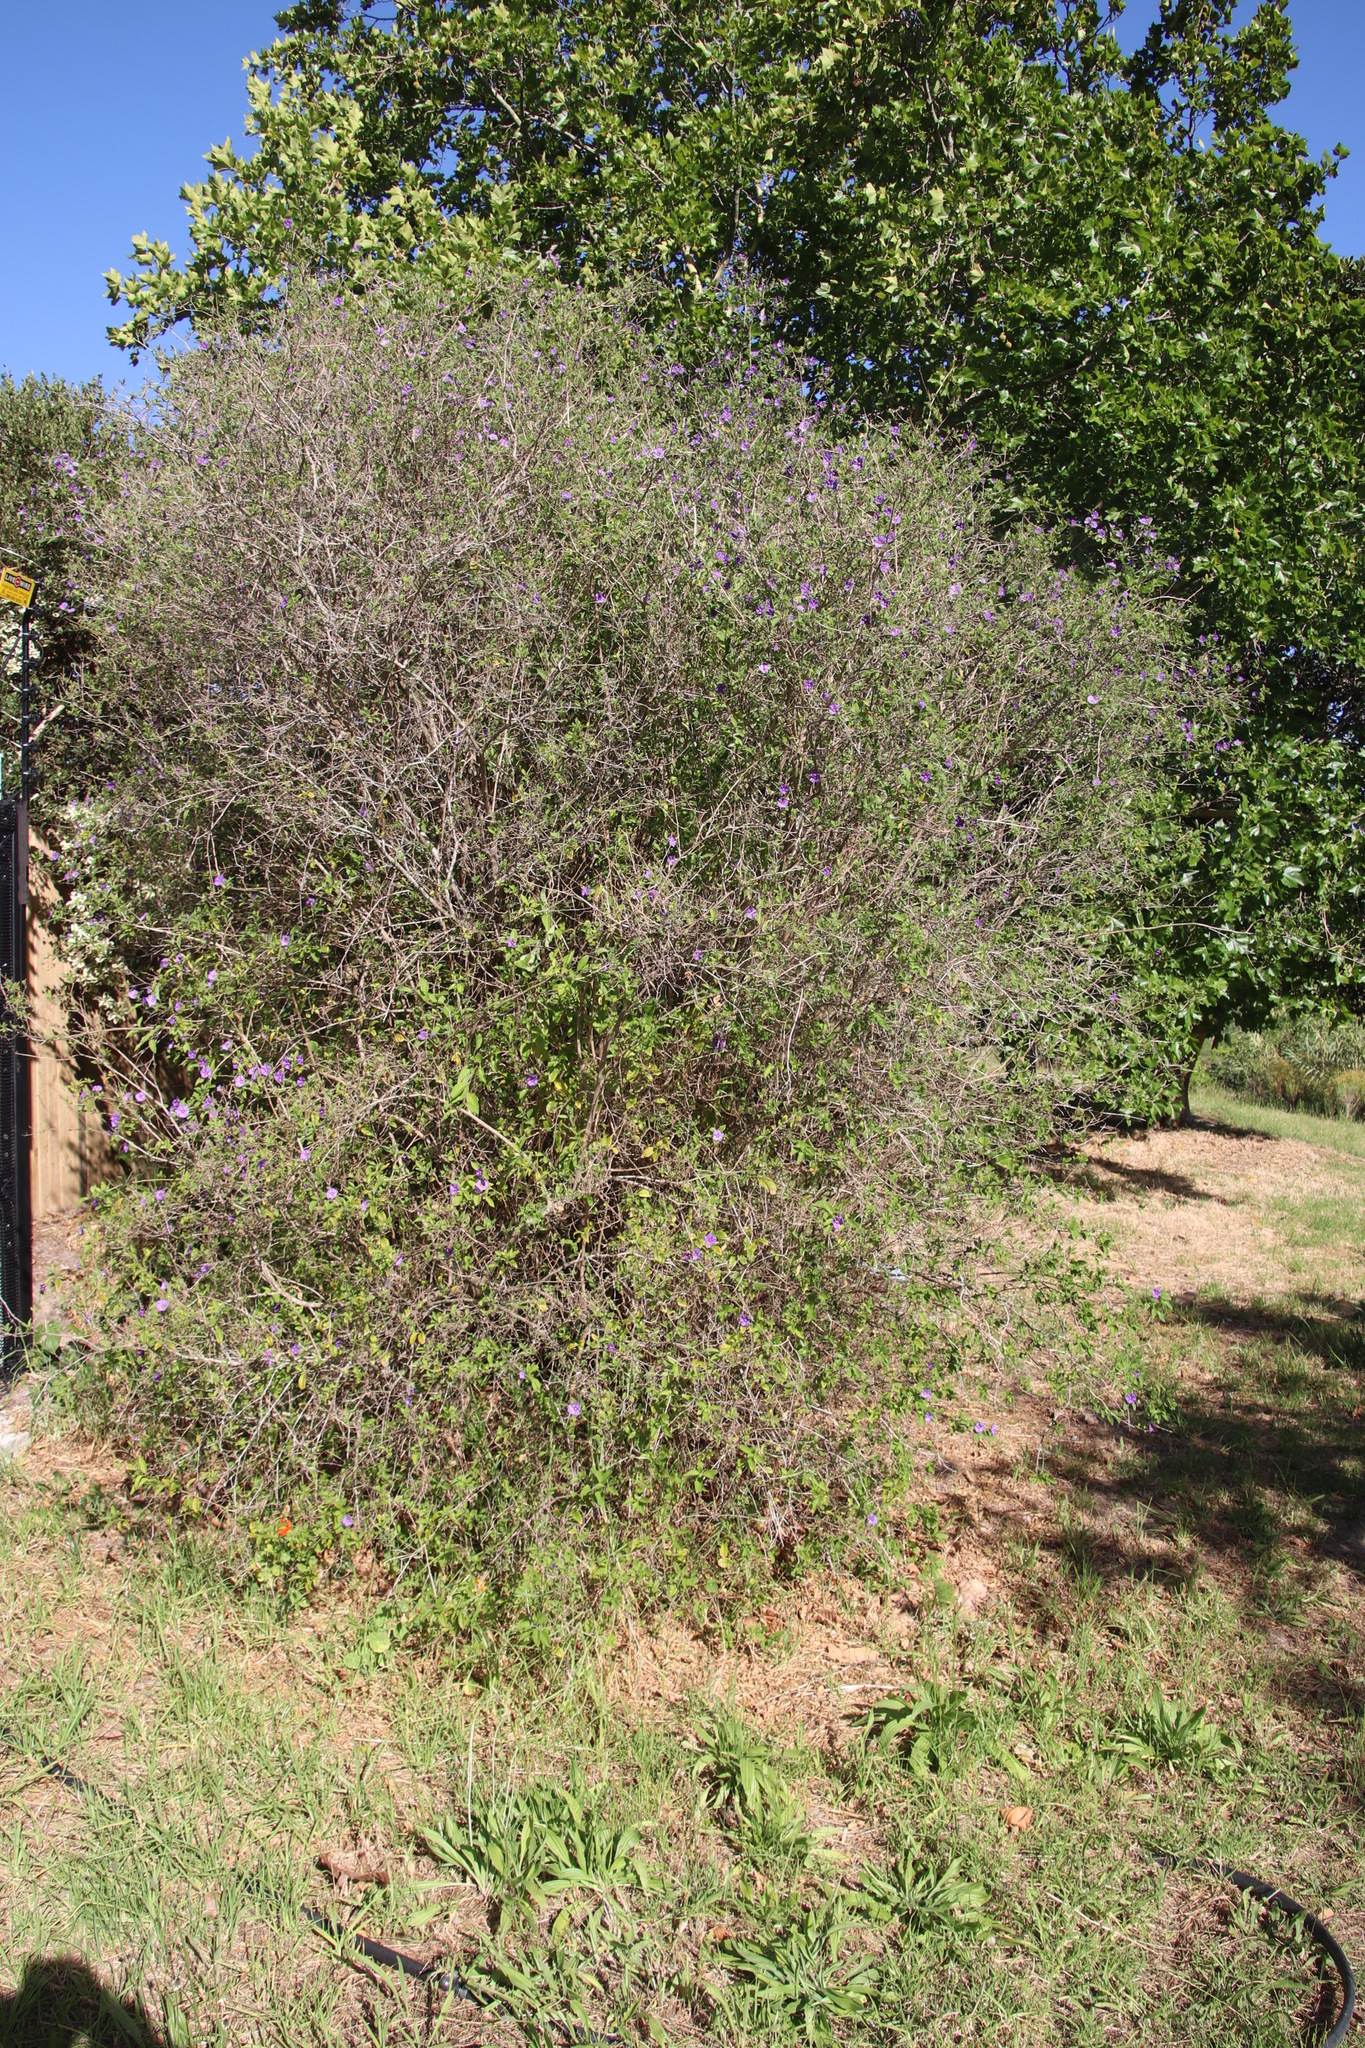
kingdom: Plantae
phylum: Tracheophyta
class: Magnoliopsida
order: Solanales
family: Solanaceae
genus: Lycianthes
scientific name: Lycianthes rantonnetii
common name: Blue potatobush
